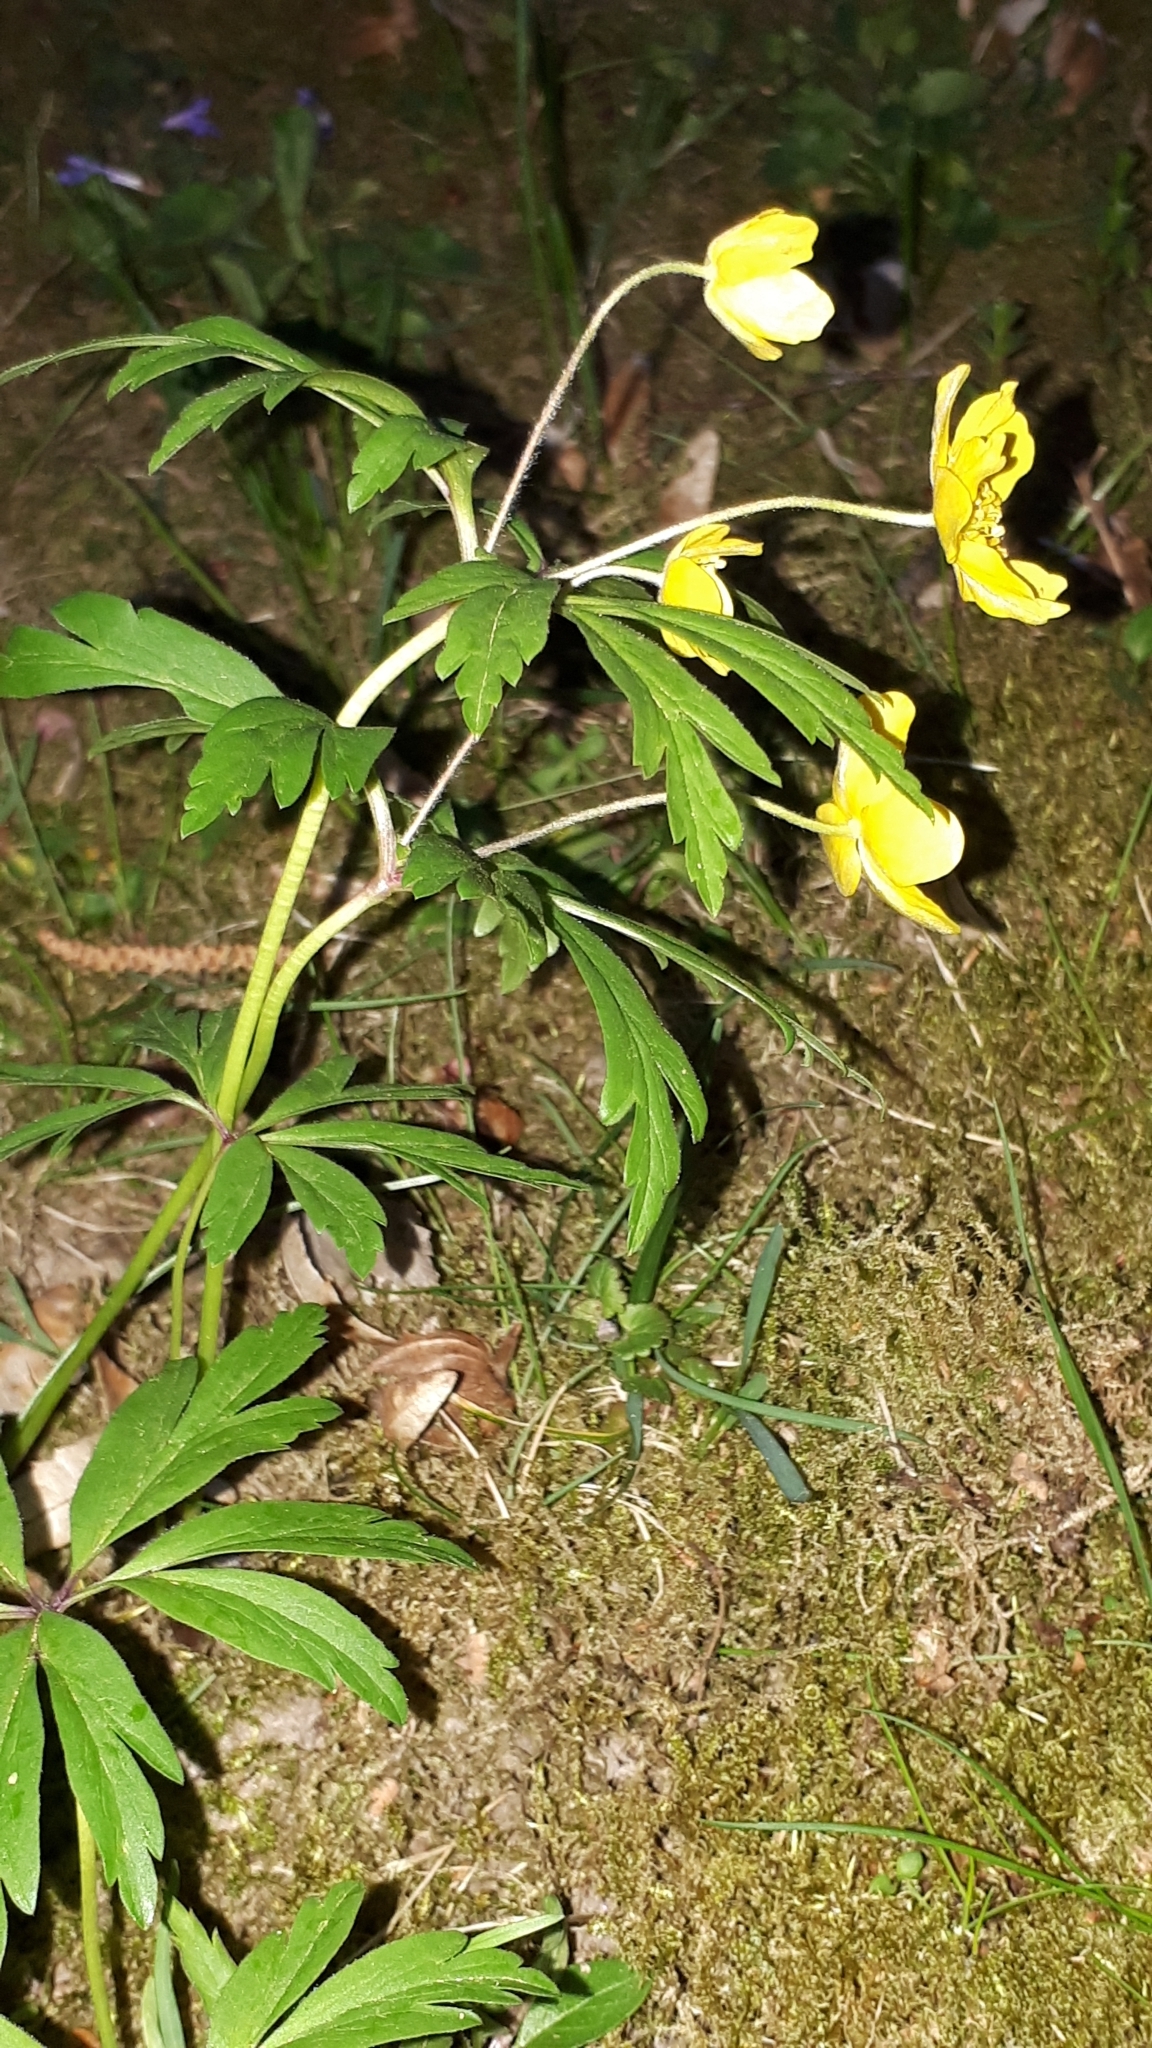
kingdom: Plantae
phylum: Tracheophyta
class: Magnoliopsida
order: Ranunculales
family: Ranunculaceae
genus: Anemone
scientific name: Anemone ranunculoides
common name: Yellow anemone
